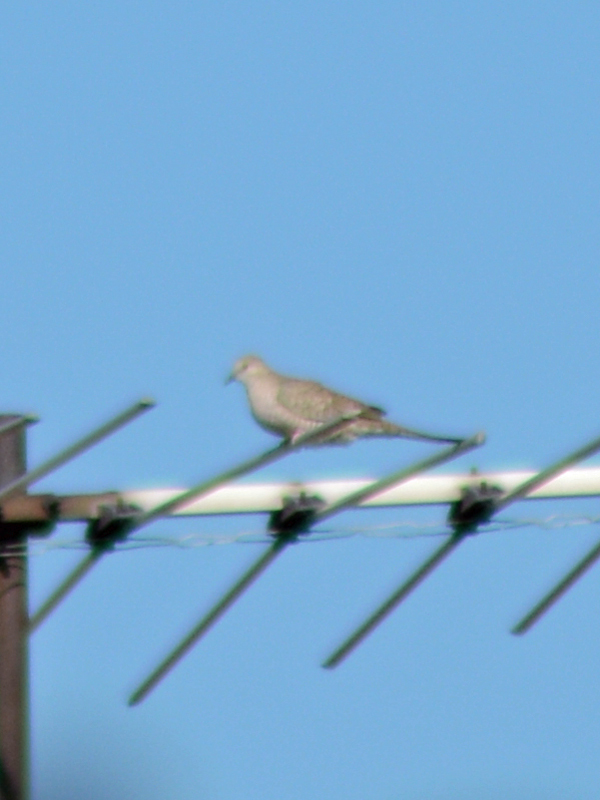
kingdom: Animalia
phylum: Chordata
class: Aves
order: Columbiformes
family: Columbidae
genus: Columbina
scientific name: Columbina inca
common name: Inca dove
